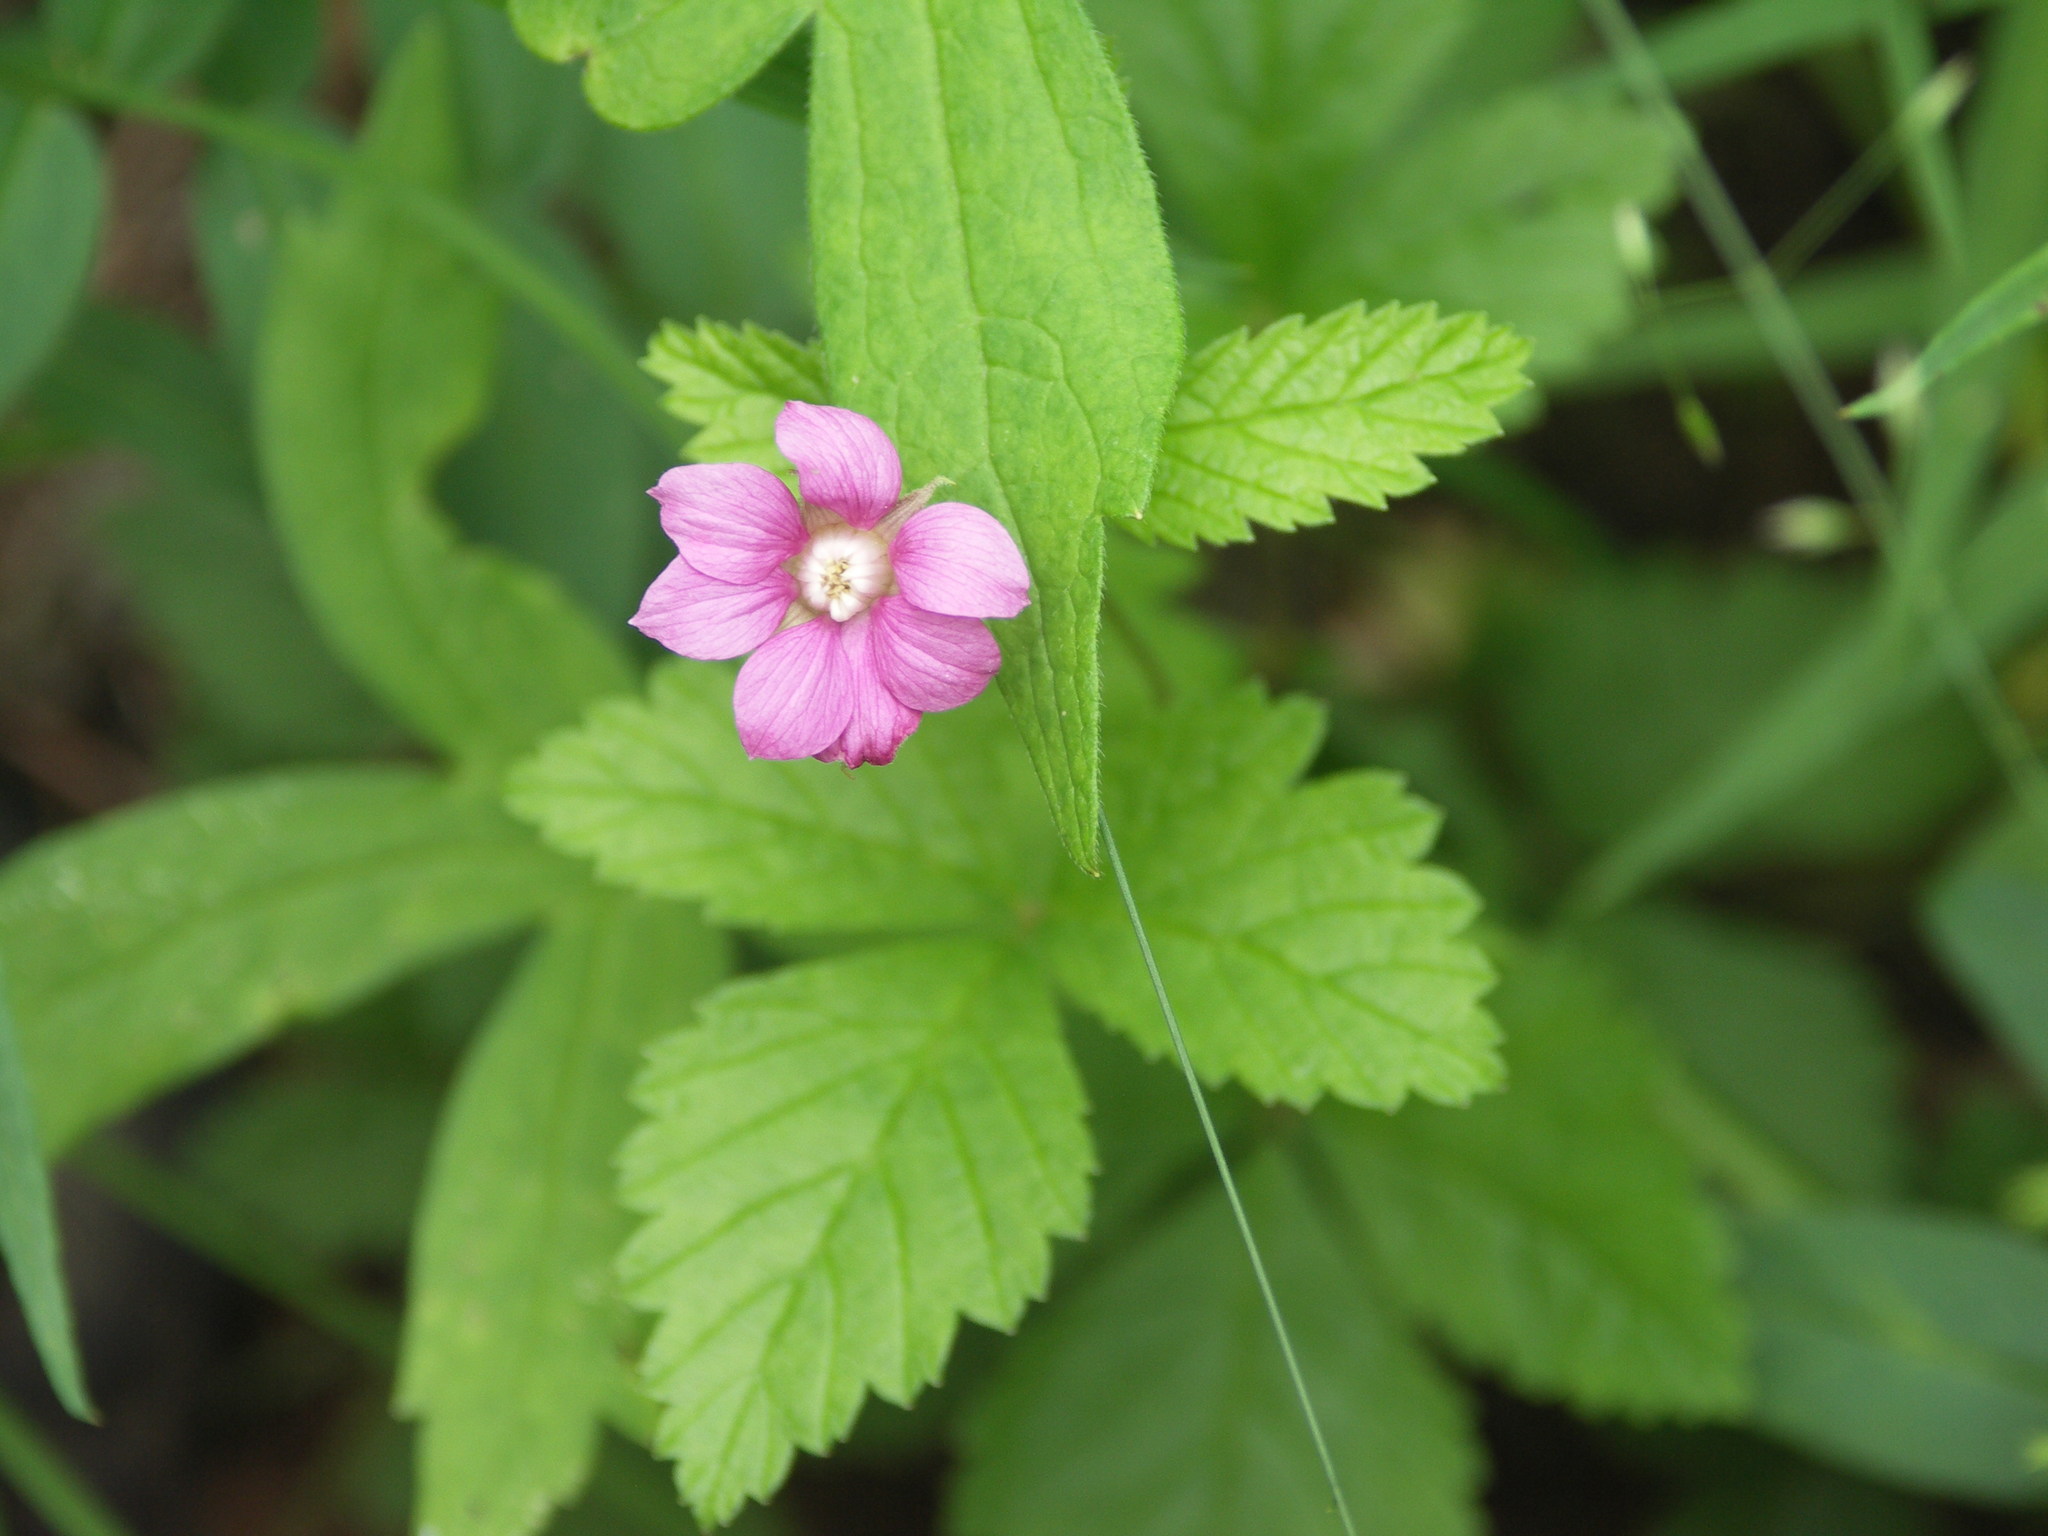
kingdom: Plantae
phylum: Tracheophyta
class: Magnoliopsida
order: Rosales
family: Rosaceae
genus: Rubus
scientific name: Rubus arcticus
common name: Arctic bramble
